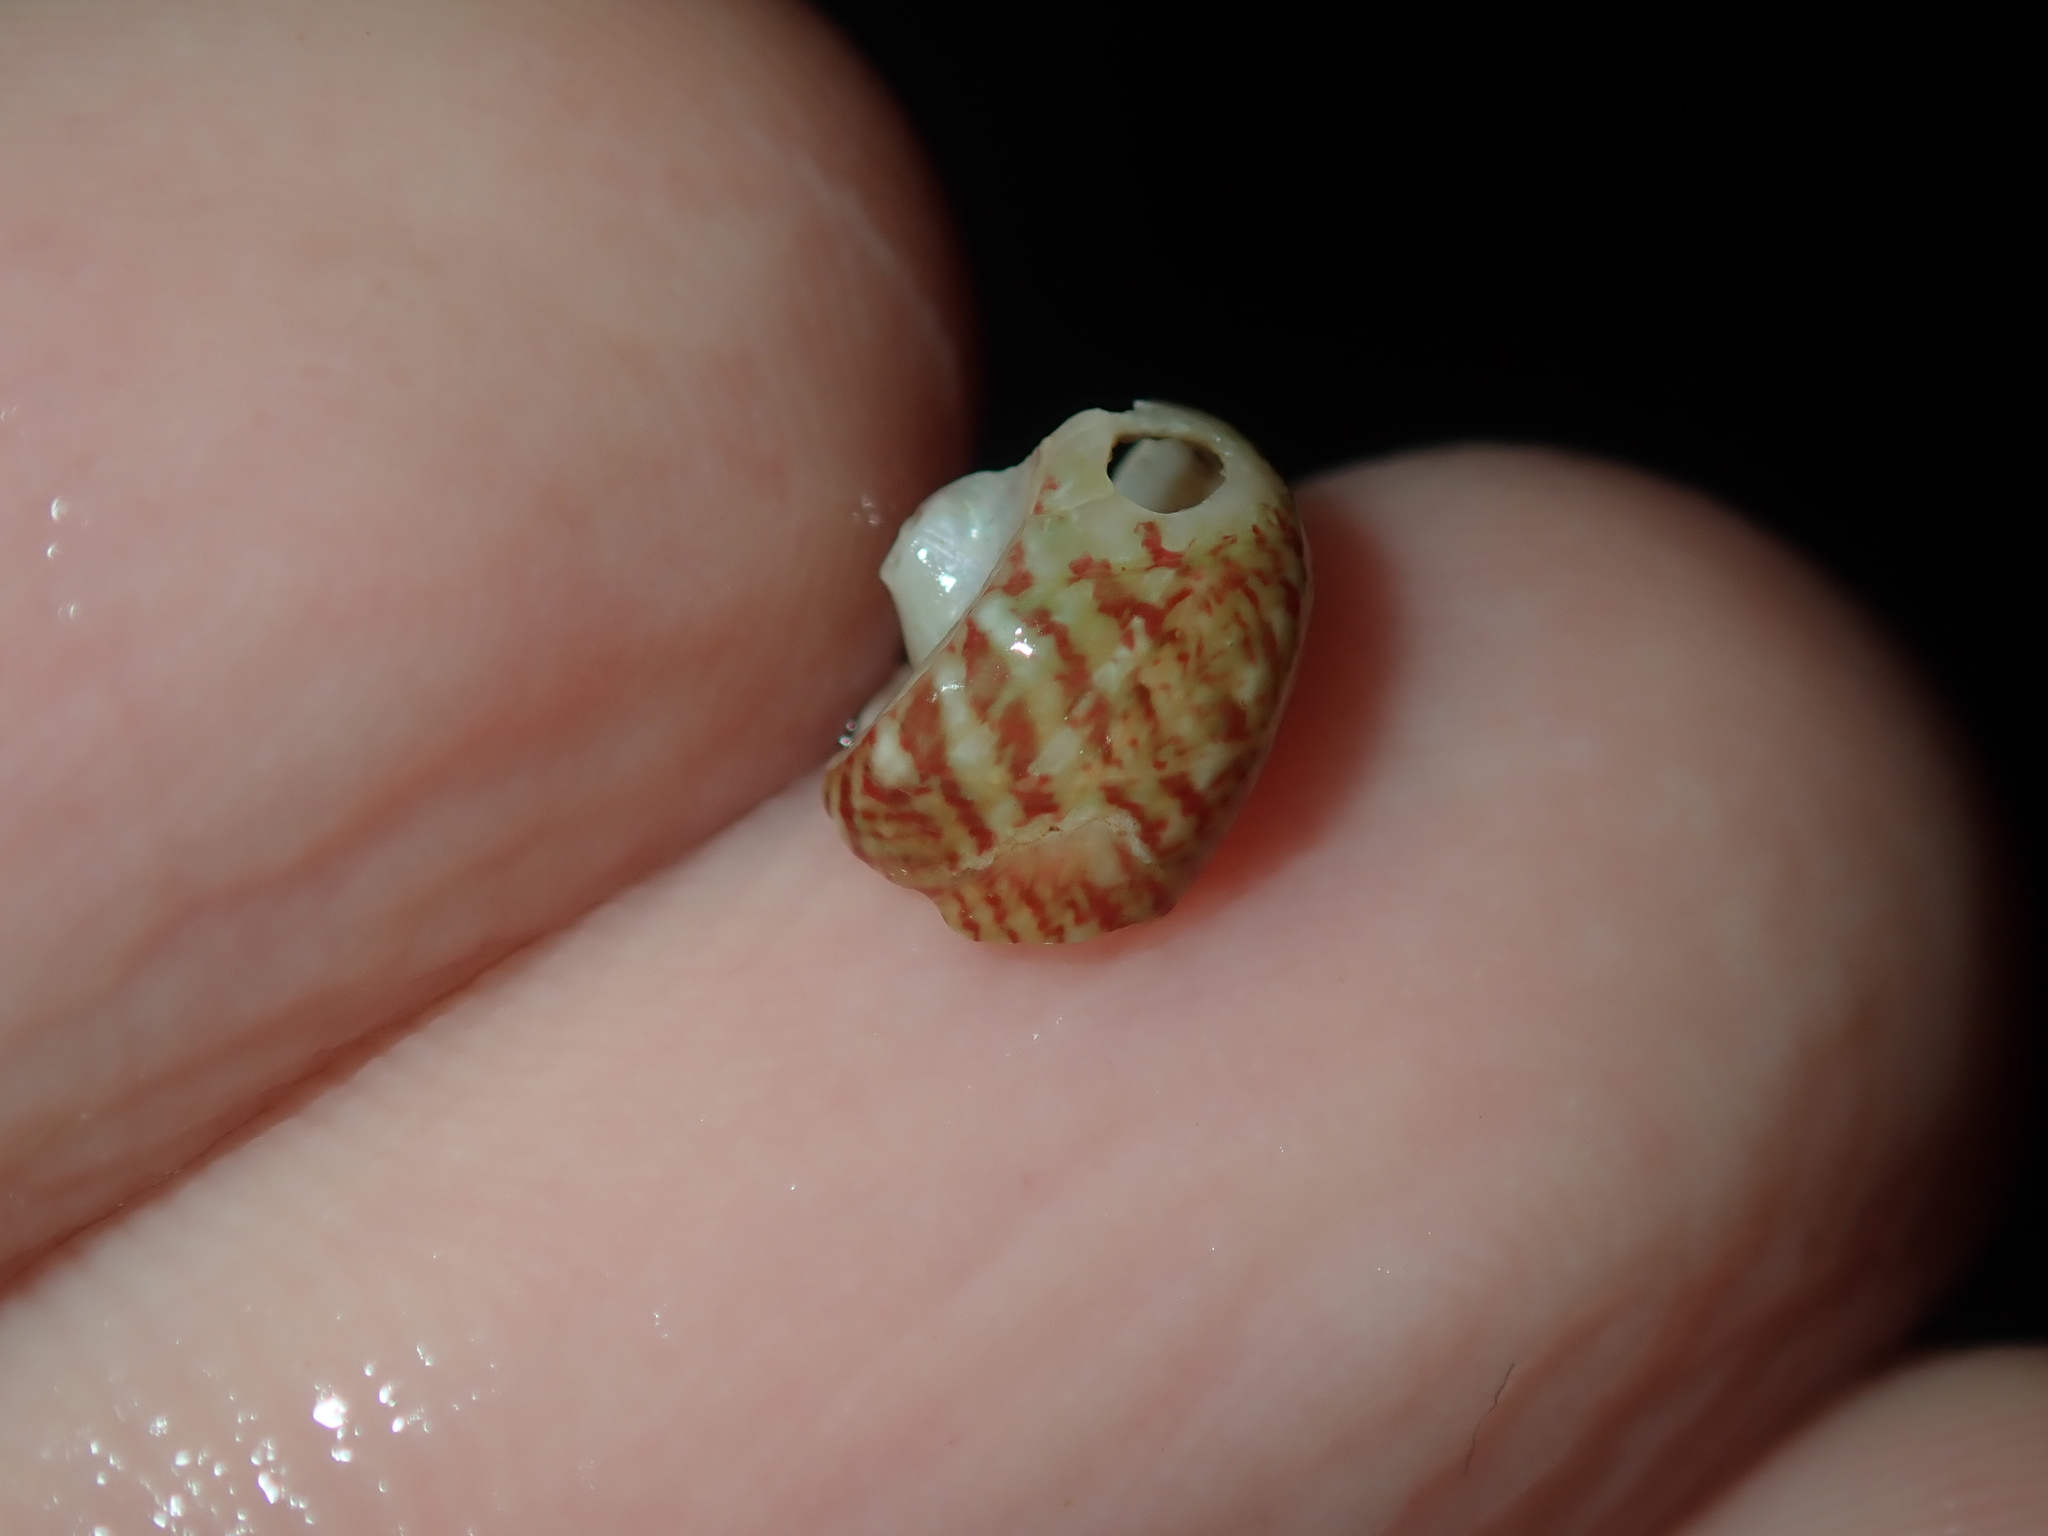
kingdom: Animalia
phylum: Mollusca
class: Gastropoda
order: Trochida
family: Trochidae
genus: Cantharidella
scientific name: Cantharidella picturata
